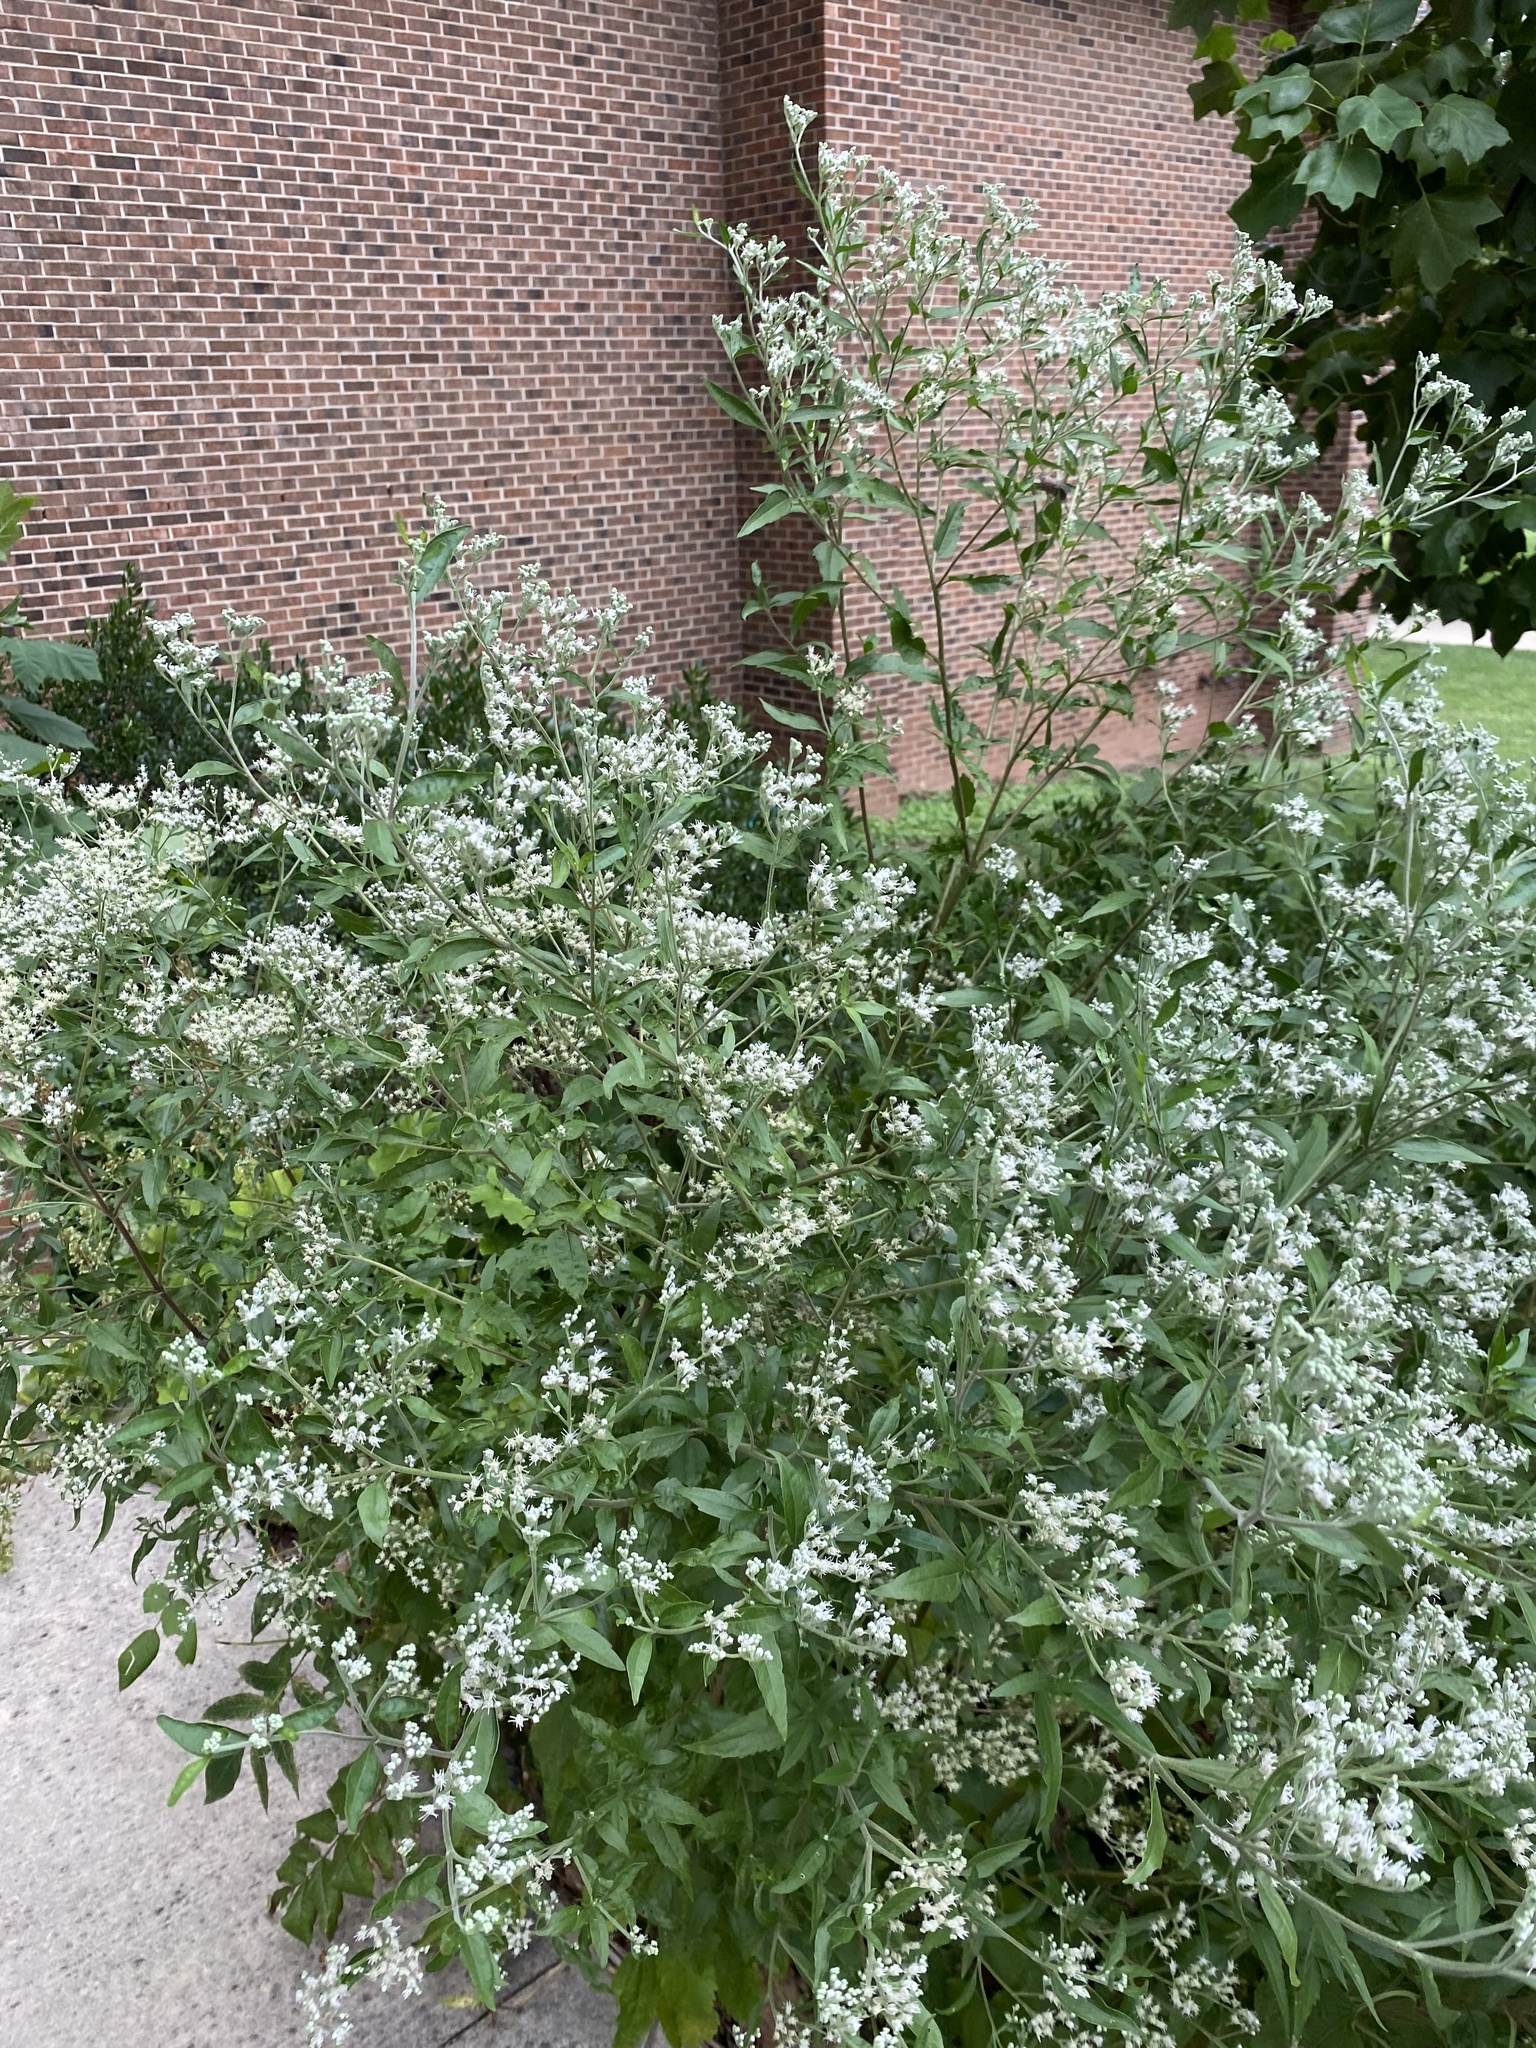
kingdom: Plantae
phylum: Tracheophyta
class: Magnoliopsida
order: Asterales
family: Asteraceae
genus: Eupatorium
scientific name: Eupatorium serotinum
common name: Late boneset
